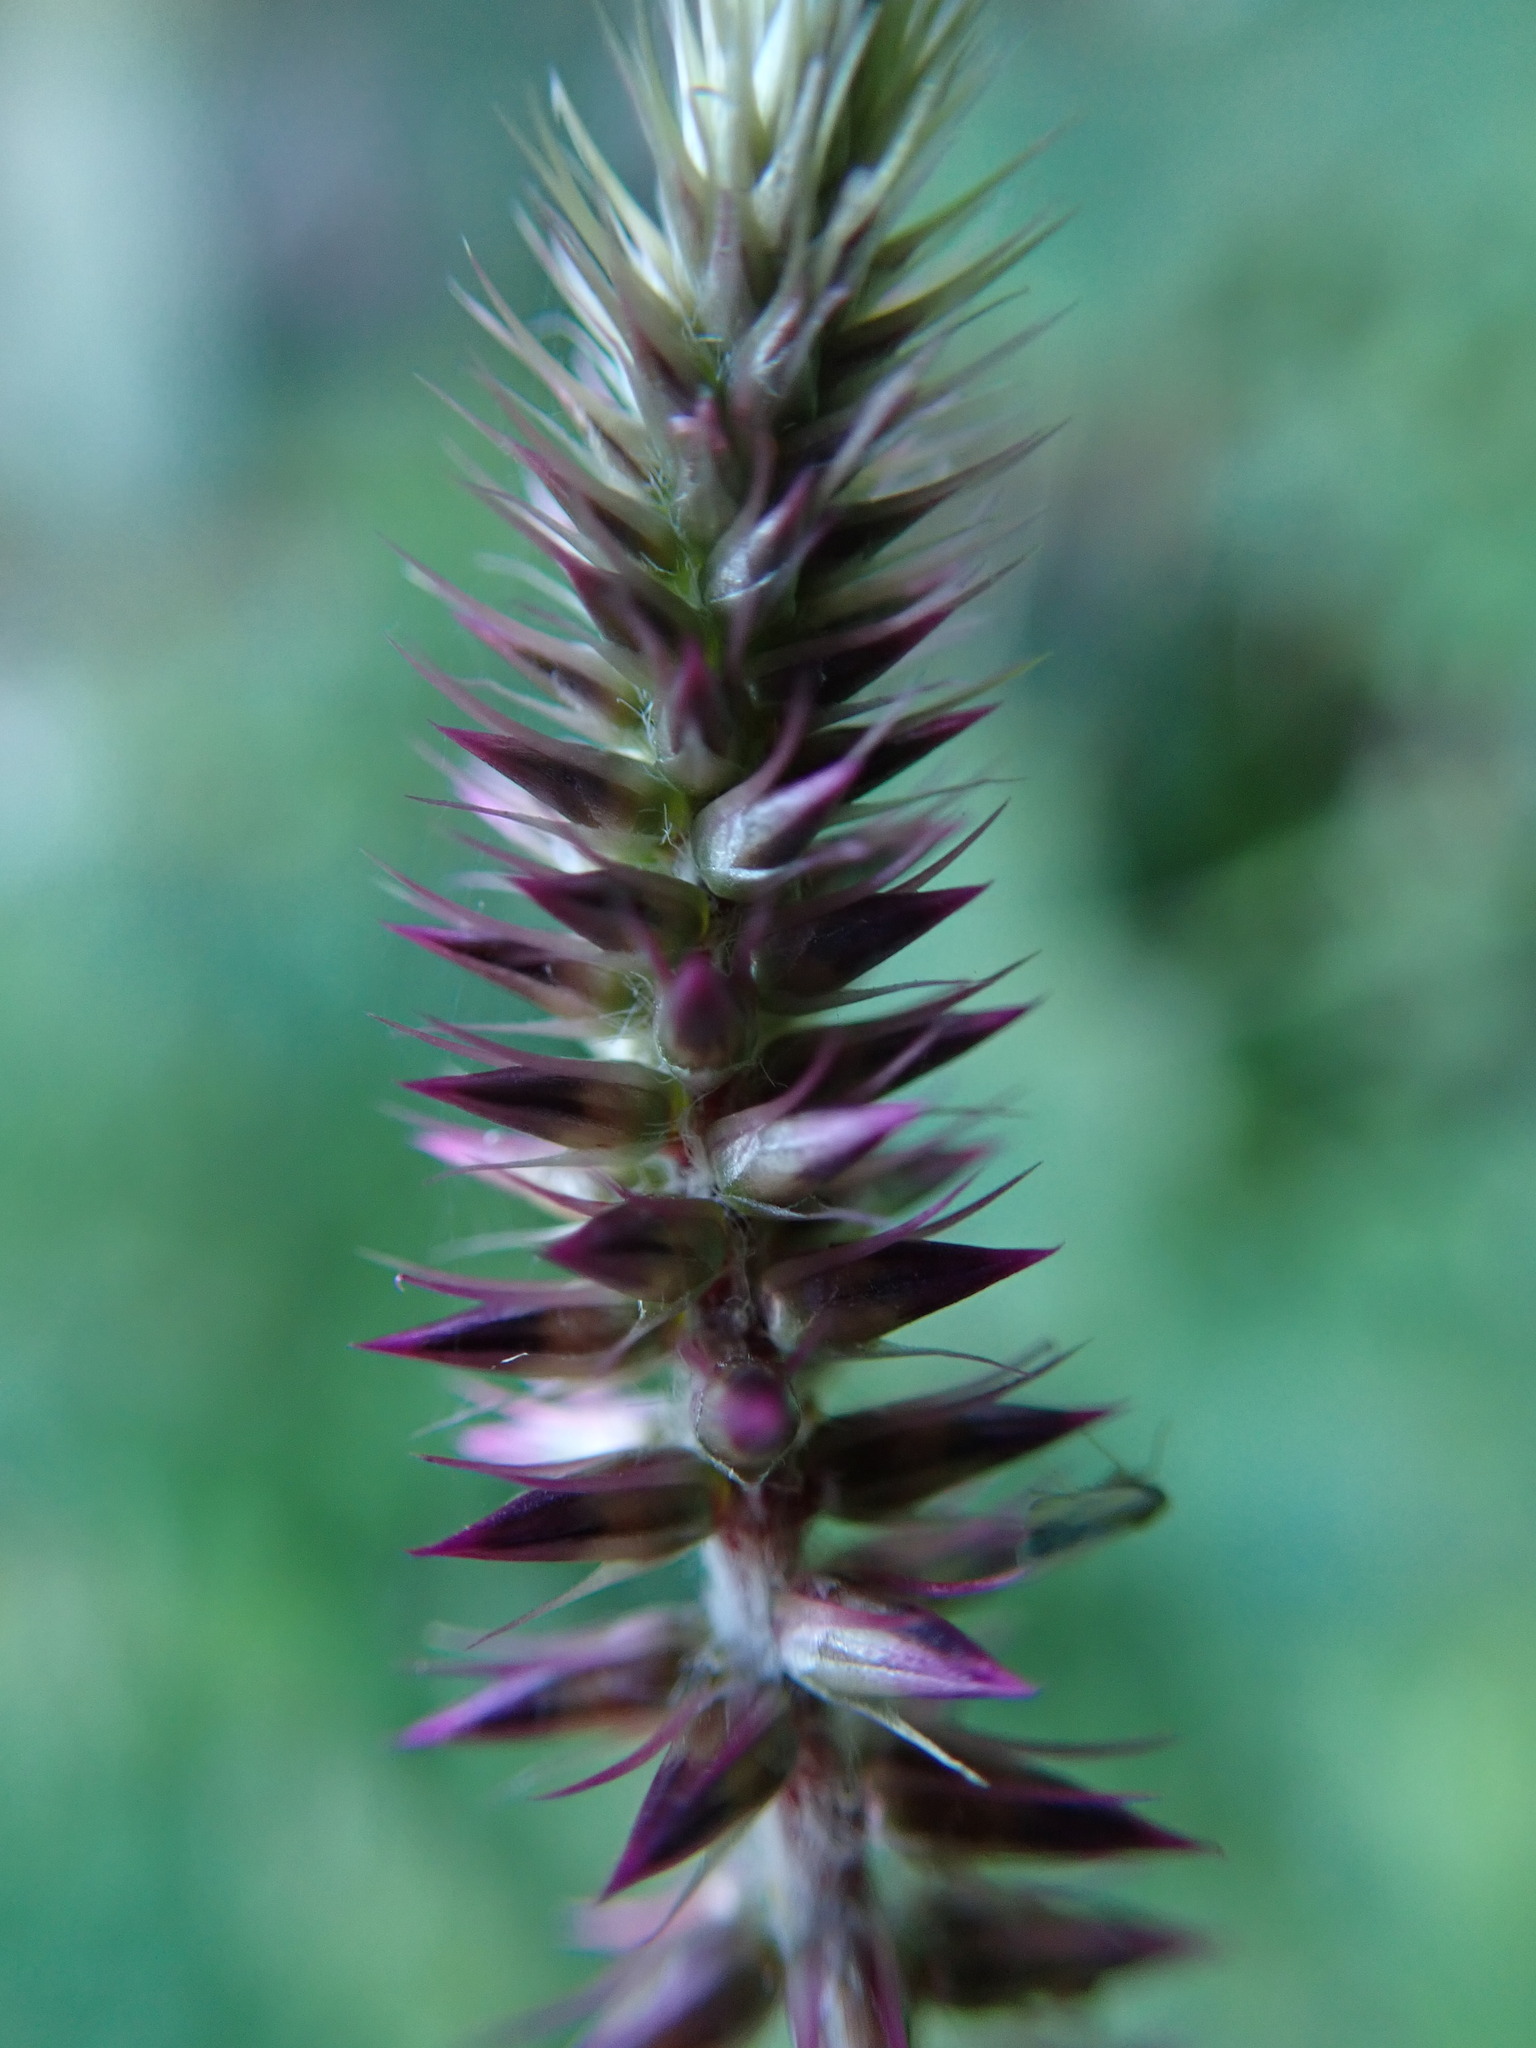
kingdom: Plantae
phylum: Tracheophyta
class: Magnoliopsida
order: Caryophyllales
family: Amaranthaceae
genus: Achyranthes
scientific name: Achyranthes aspera
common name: Devil's horsewhip
